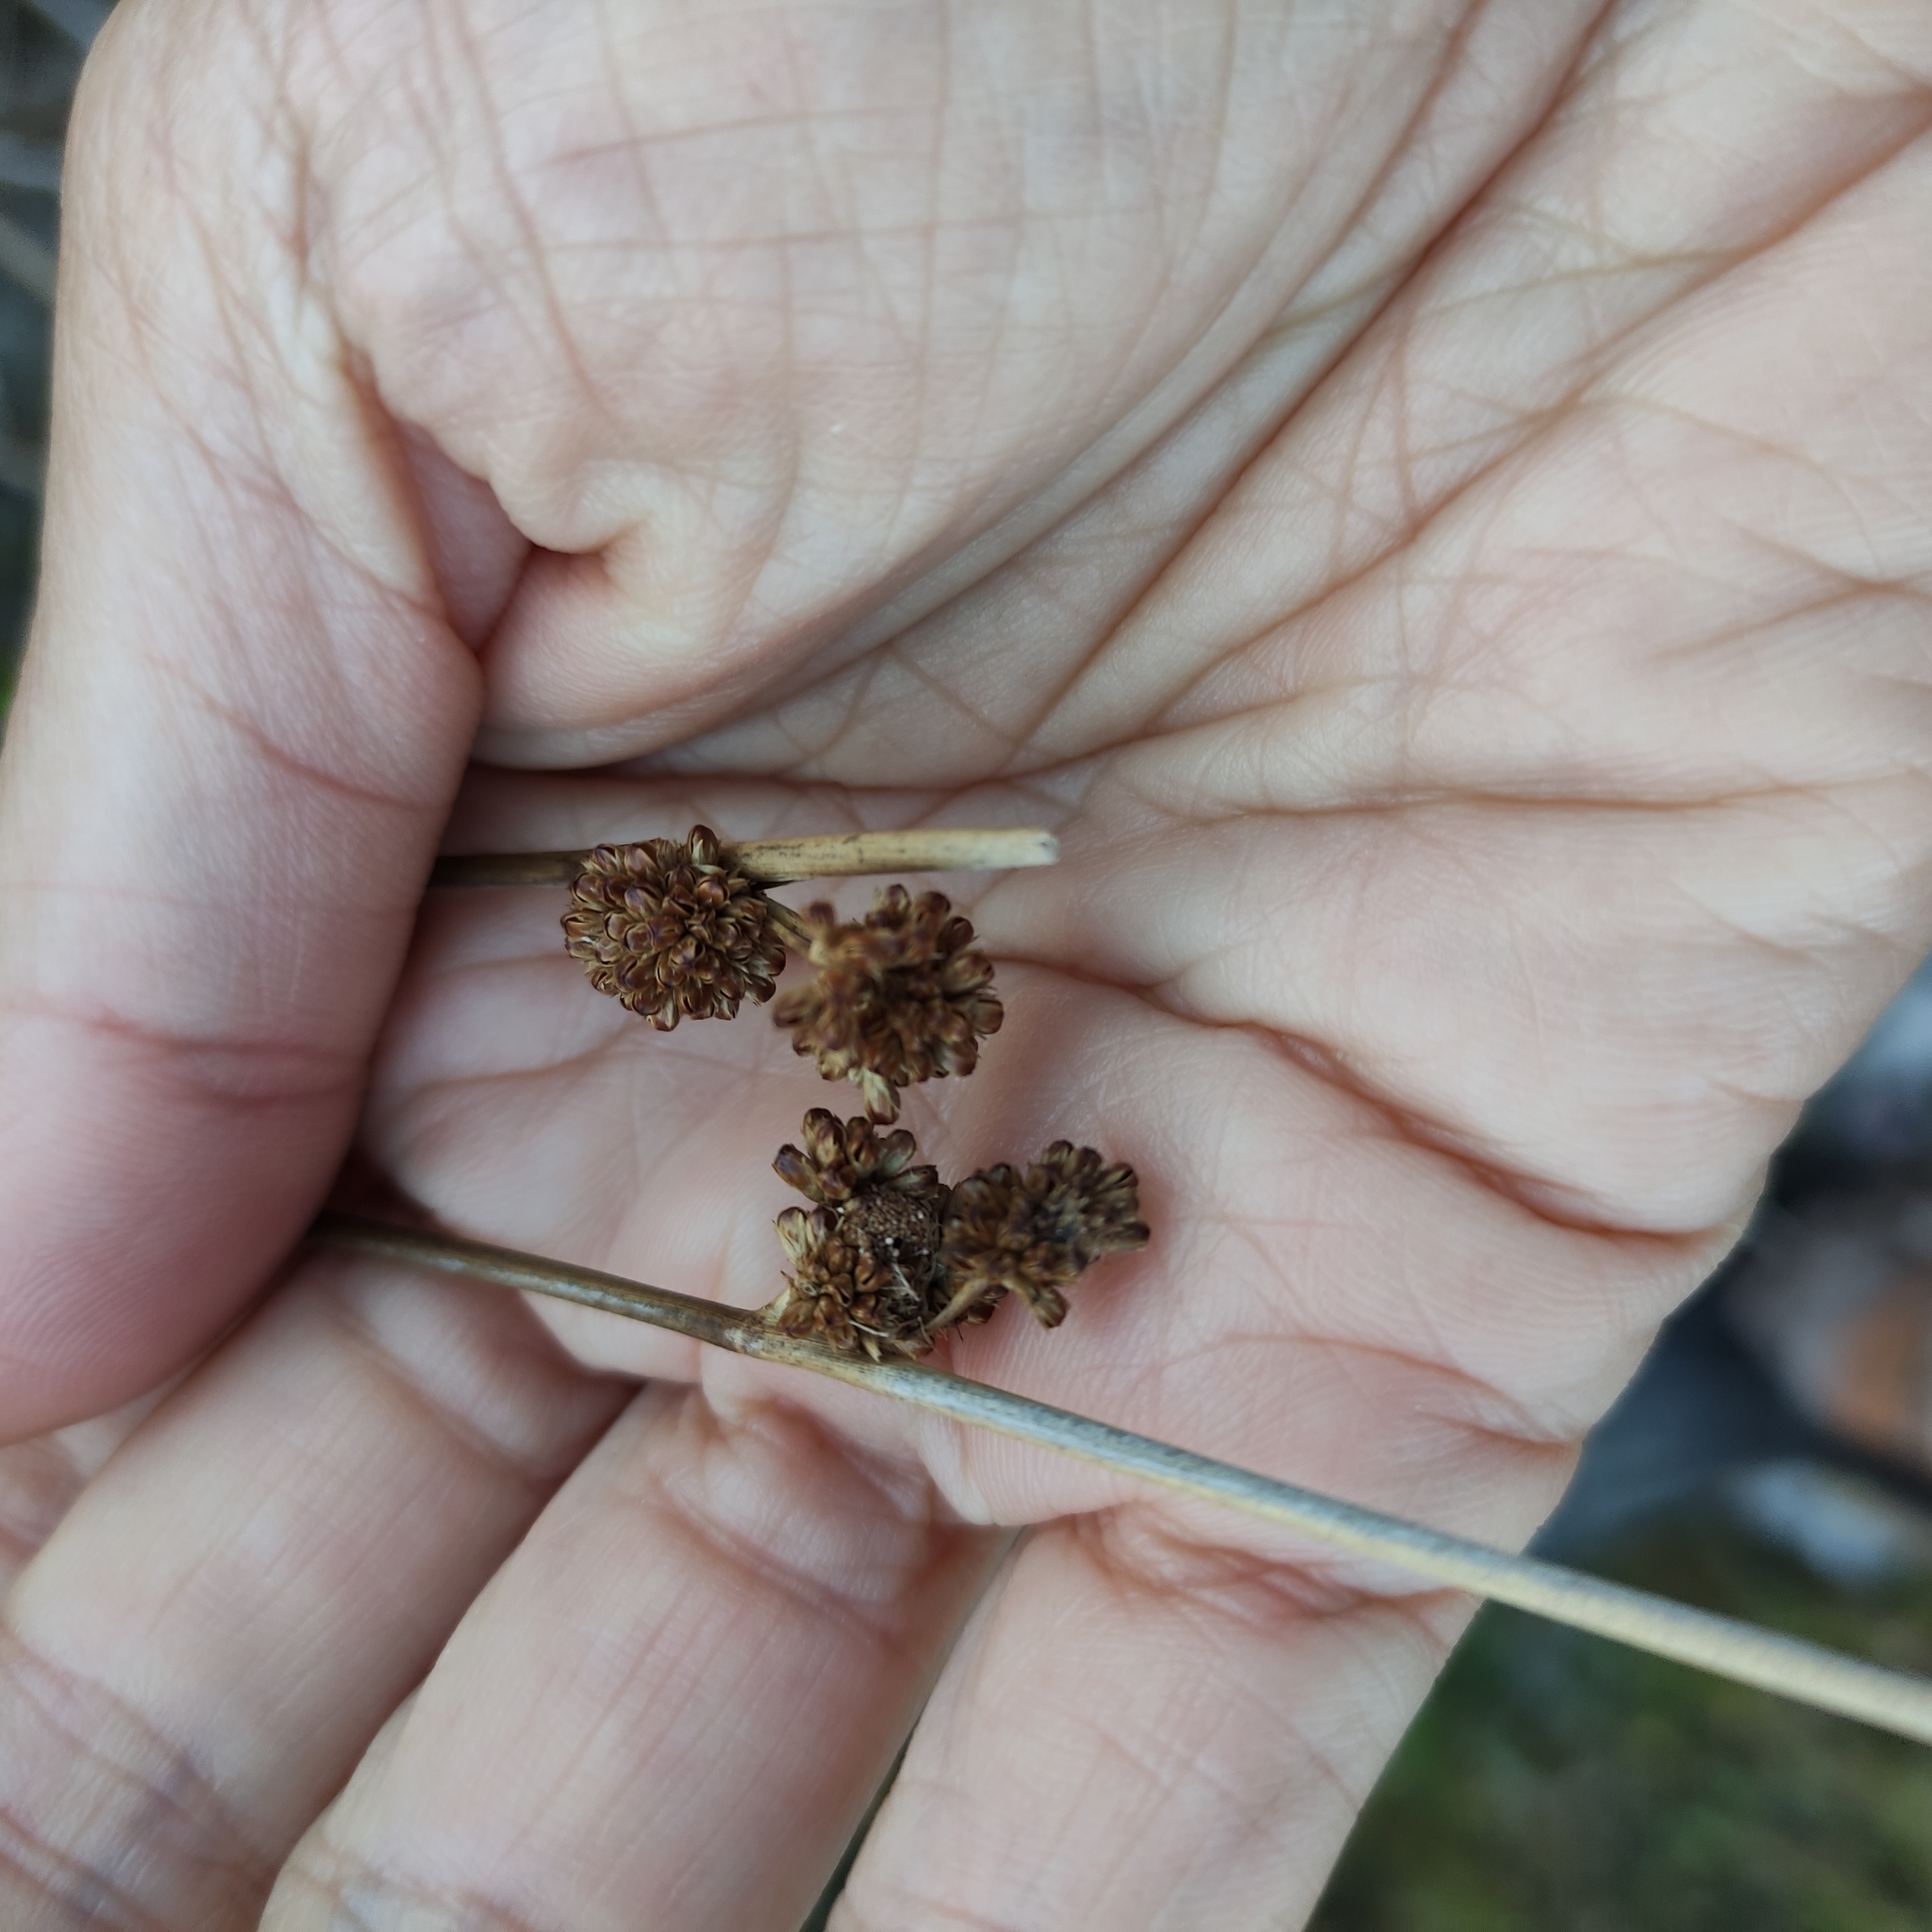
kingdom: Plantae
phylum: Tracheophyta
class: Liliopsida
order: Poales
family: Juncaceae
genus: Juncus
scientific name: Juncus edgariae
